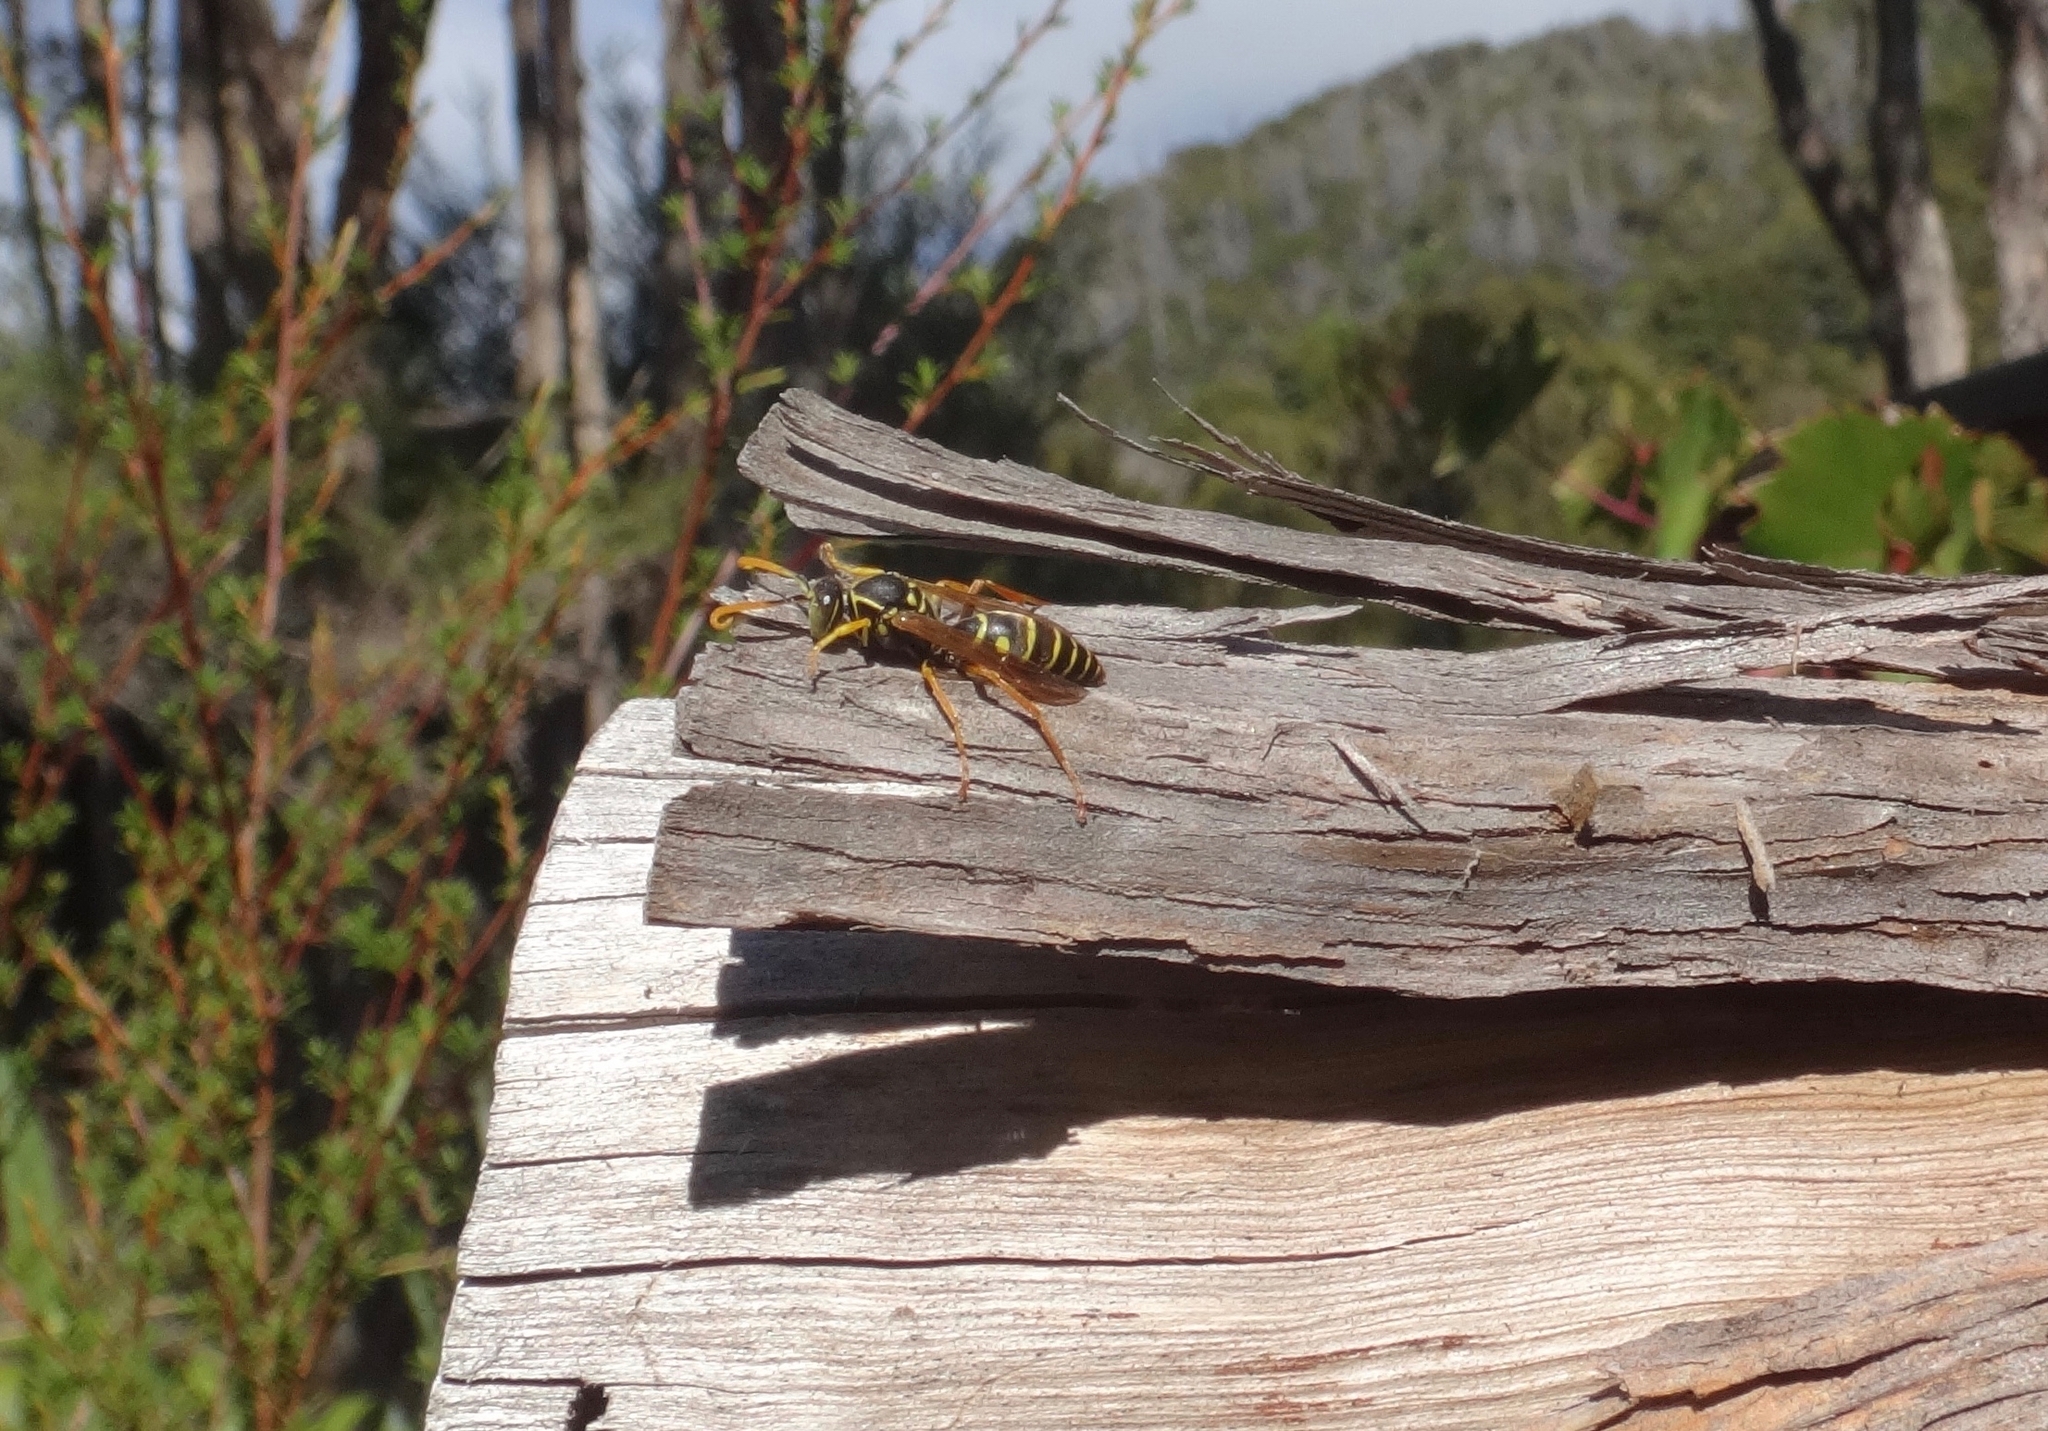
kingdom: Animalia
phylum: Arthropoda
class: Insecta
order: Hymenoptera
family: Eumenidae
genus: Polistes
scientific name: Polistes chinensis
